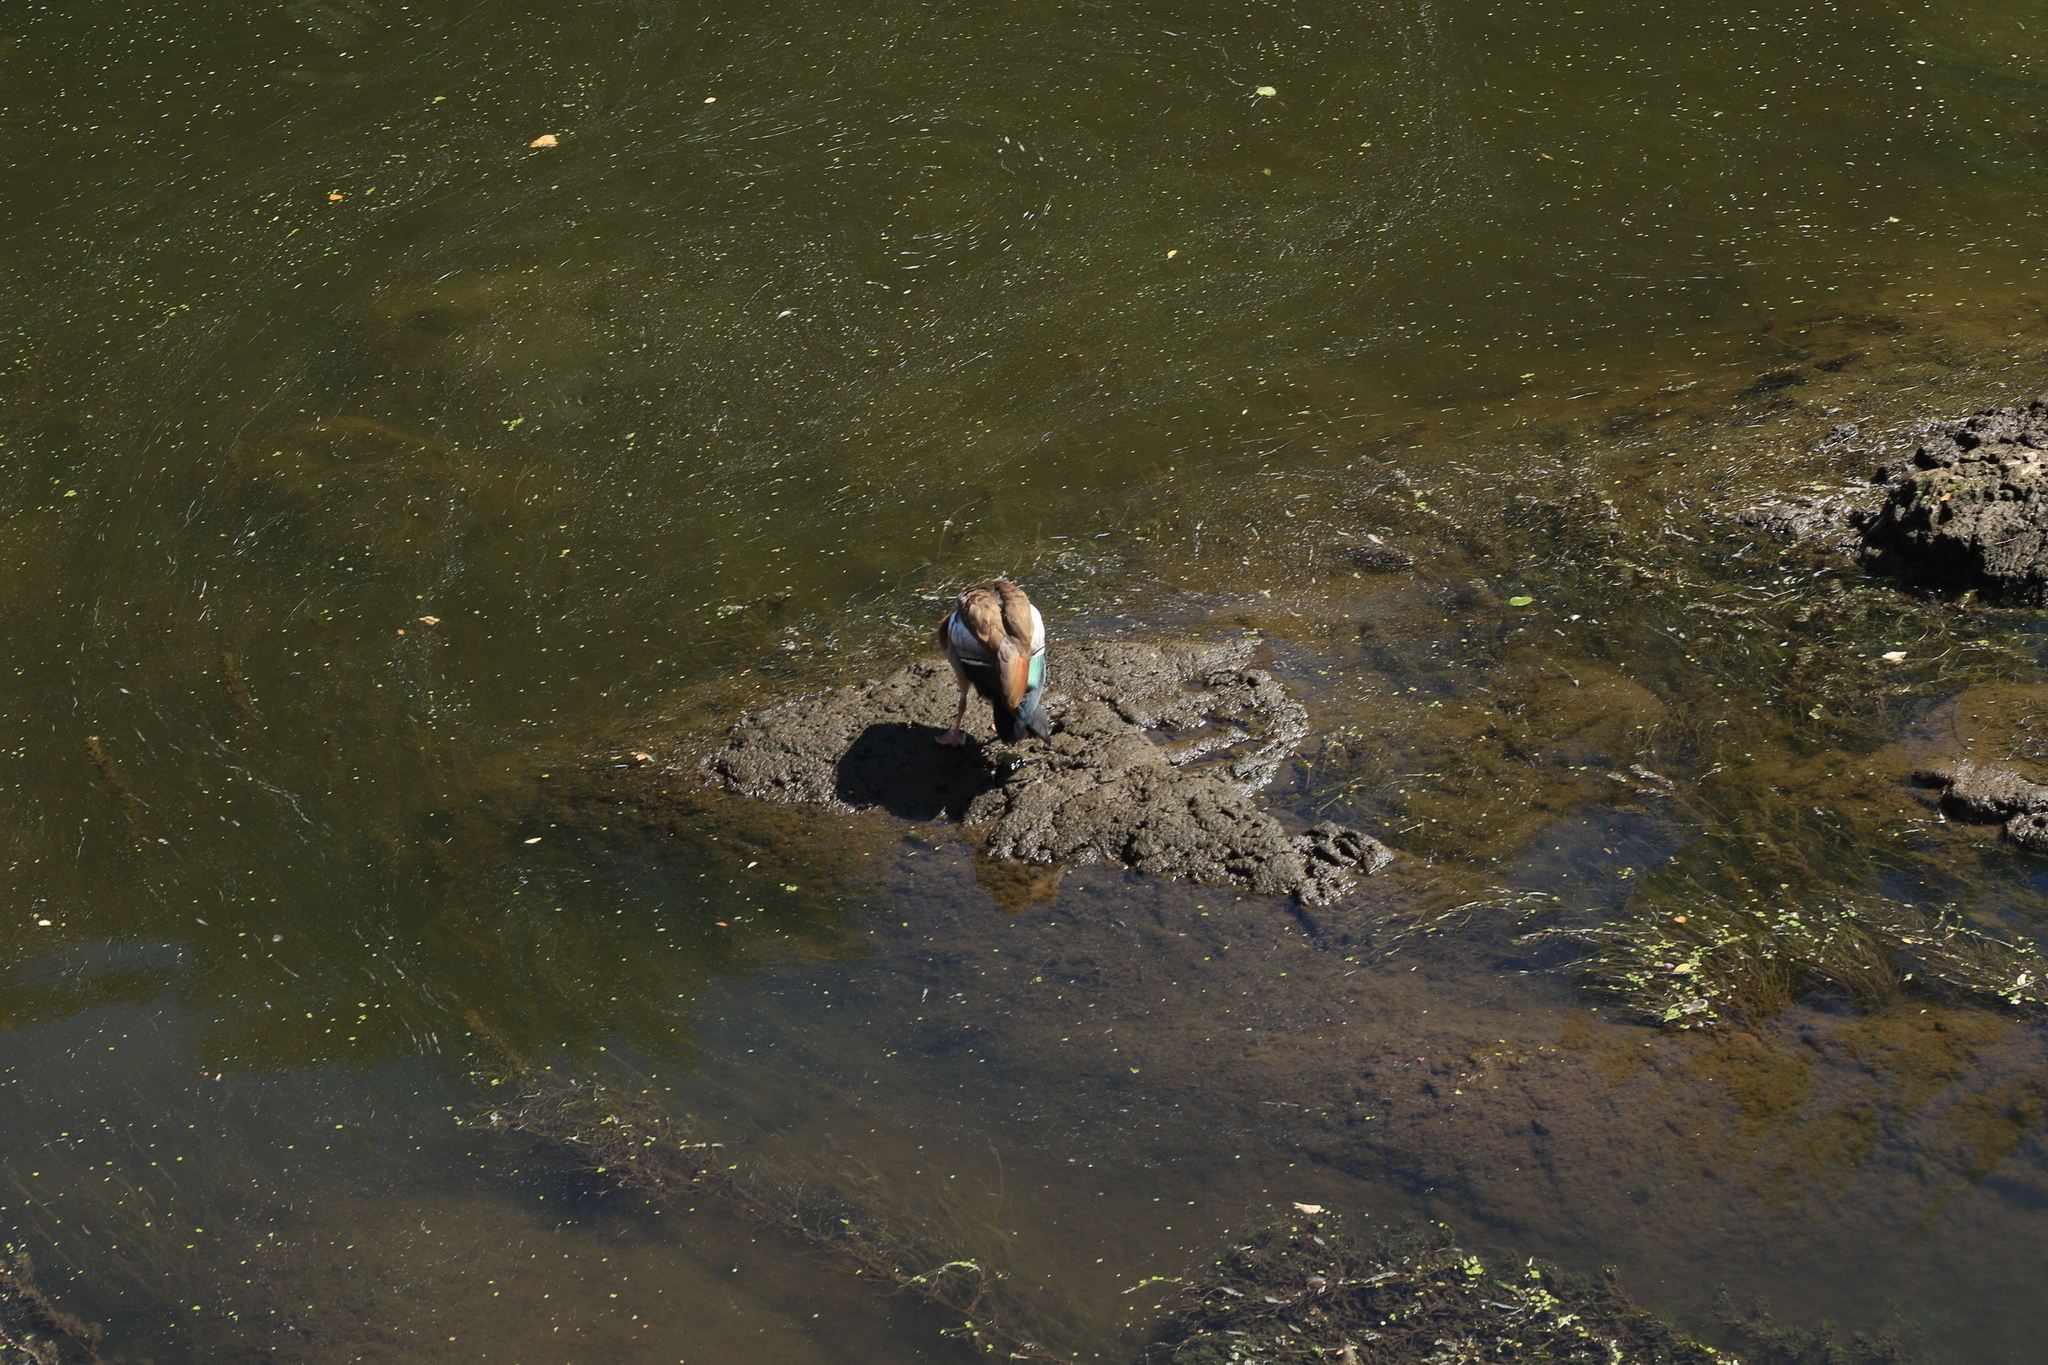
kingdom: Animalia
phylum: Chordata
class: Aves
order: Anseriformes
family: Anatidae
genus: Alopochen
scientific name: Alopochen aegyptiaca
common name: Egyptian goose
